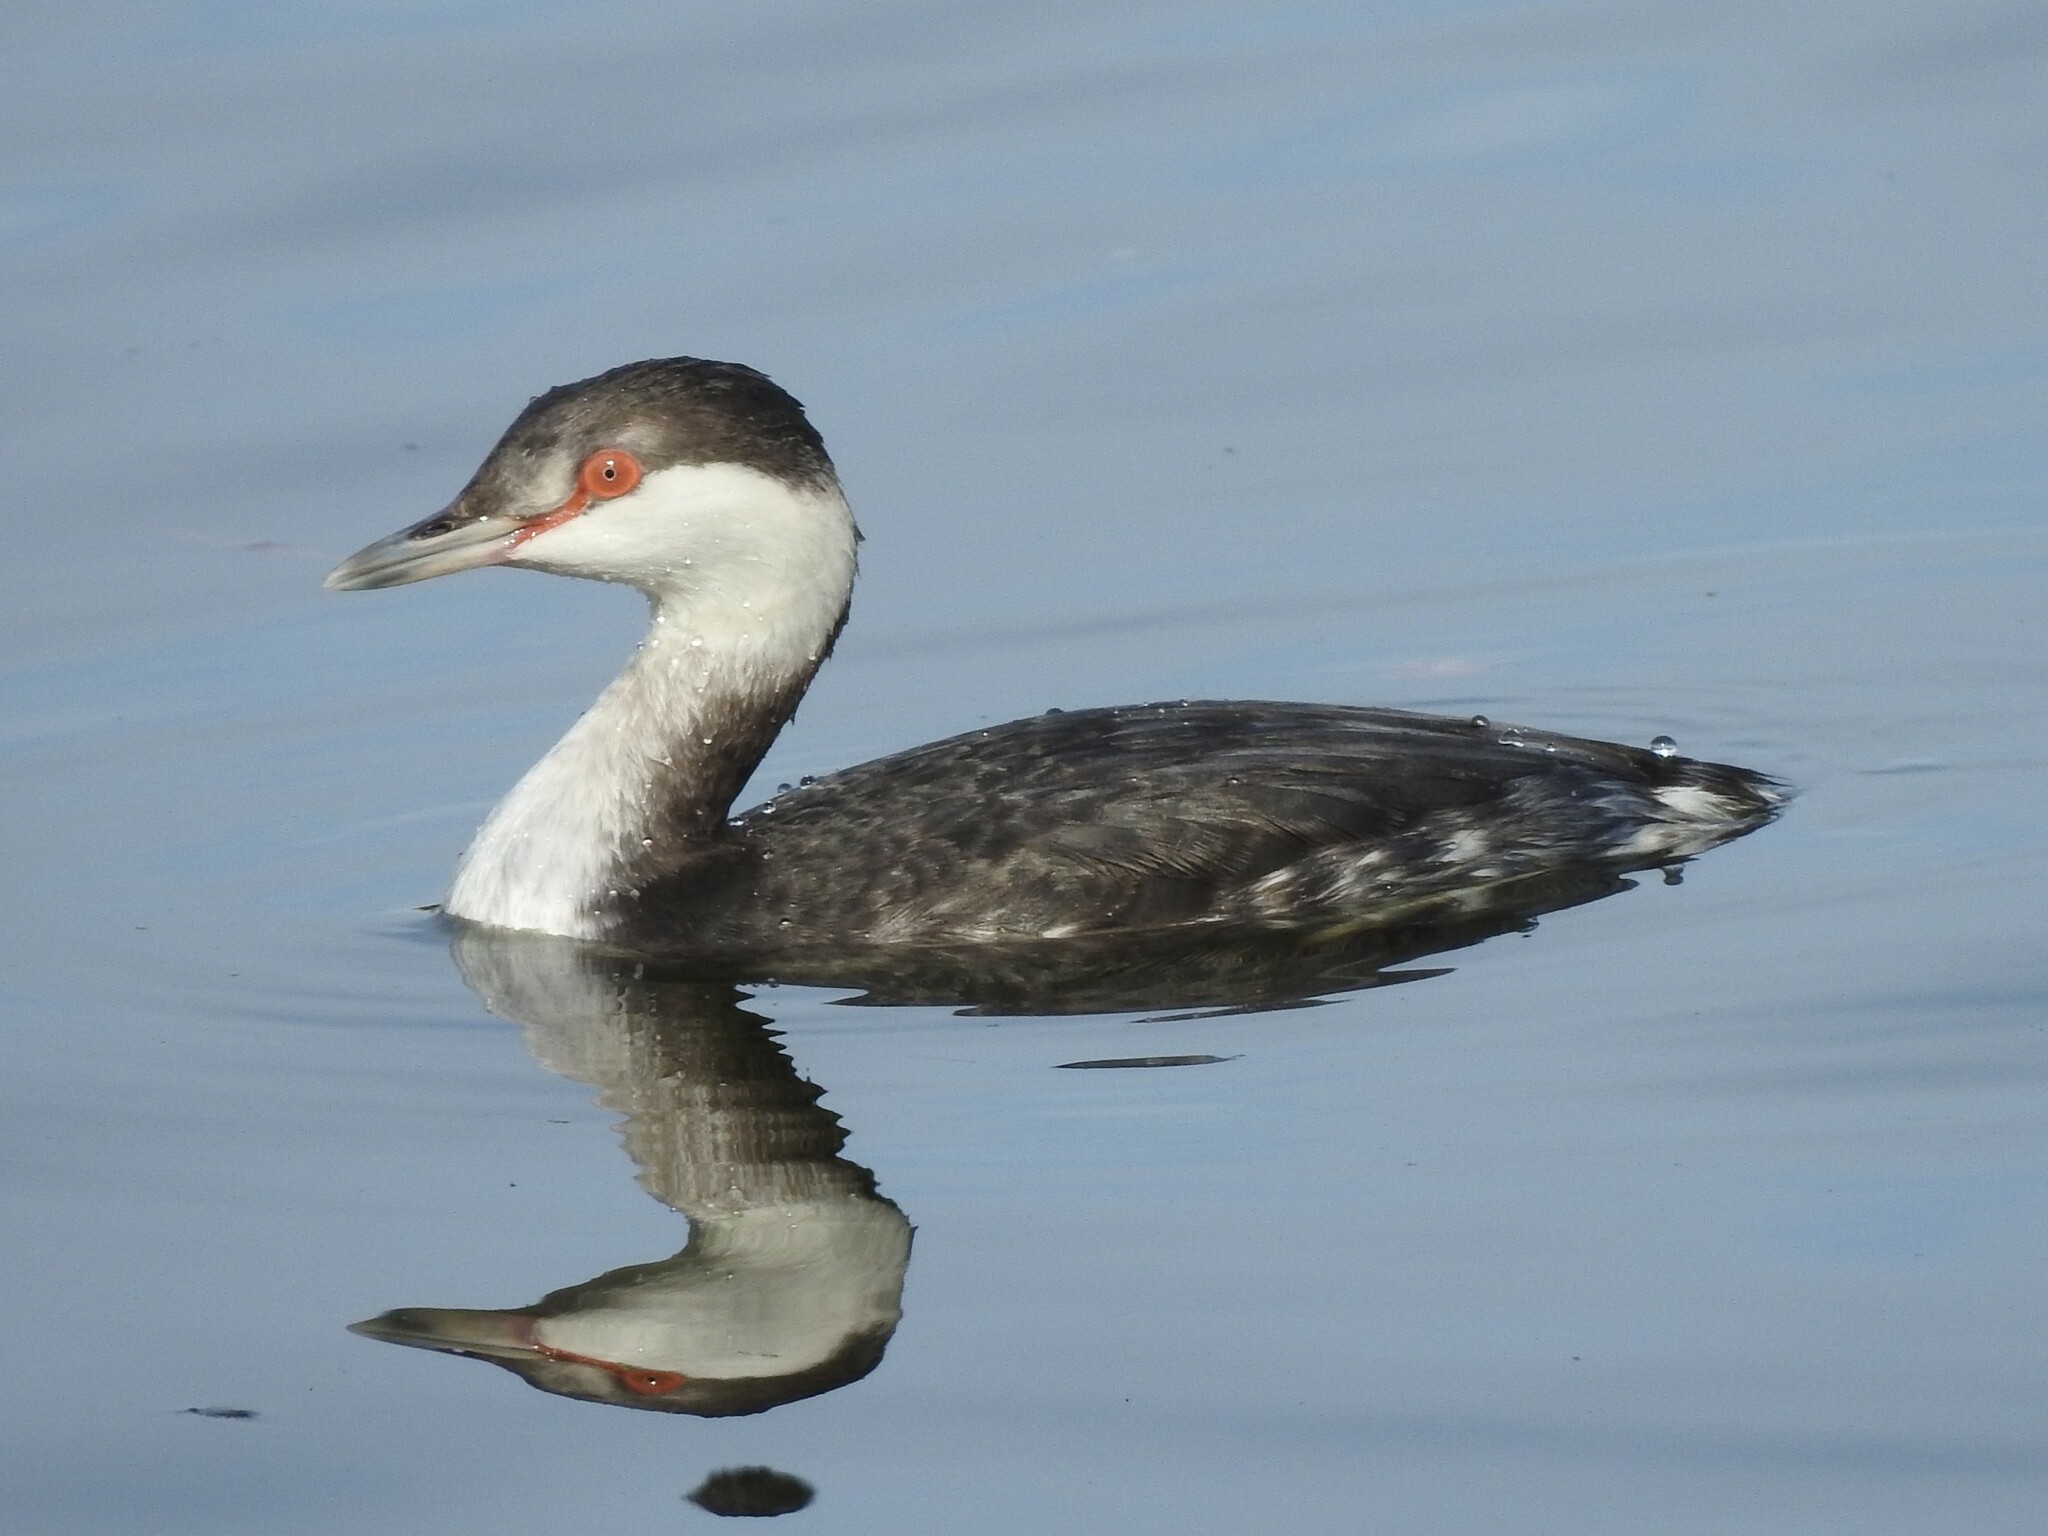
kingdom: Animalia
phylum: Chordata
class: Aves
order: Podicipediformes
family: Podicipedidae
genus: Podiceps
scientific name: Podiceps auritus
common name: Horned grebe
